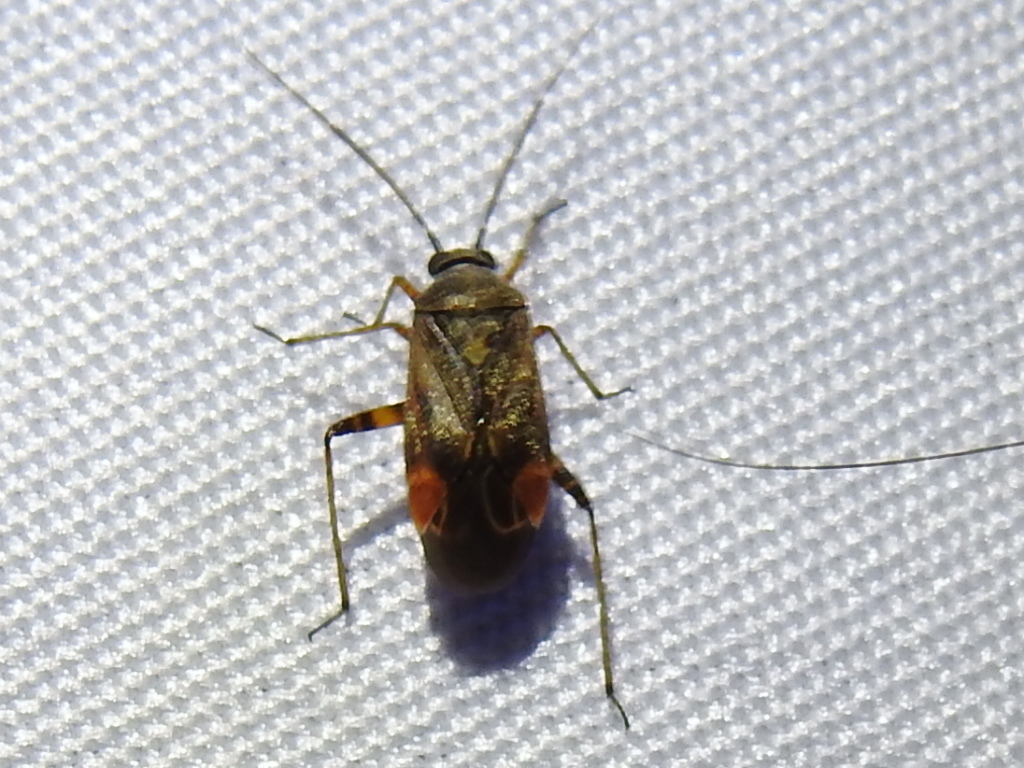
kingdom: Animalia
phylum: Arthropoda
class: Insecta
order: Hemiptera
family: Miridae
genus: Polymerus
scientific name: Polymerus basalis
